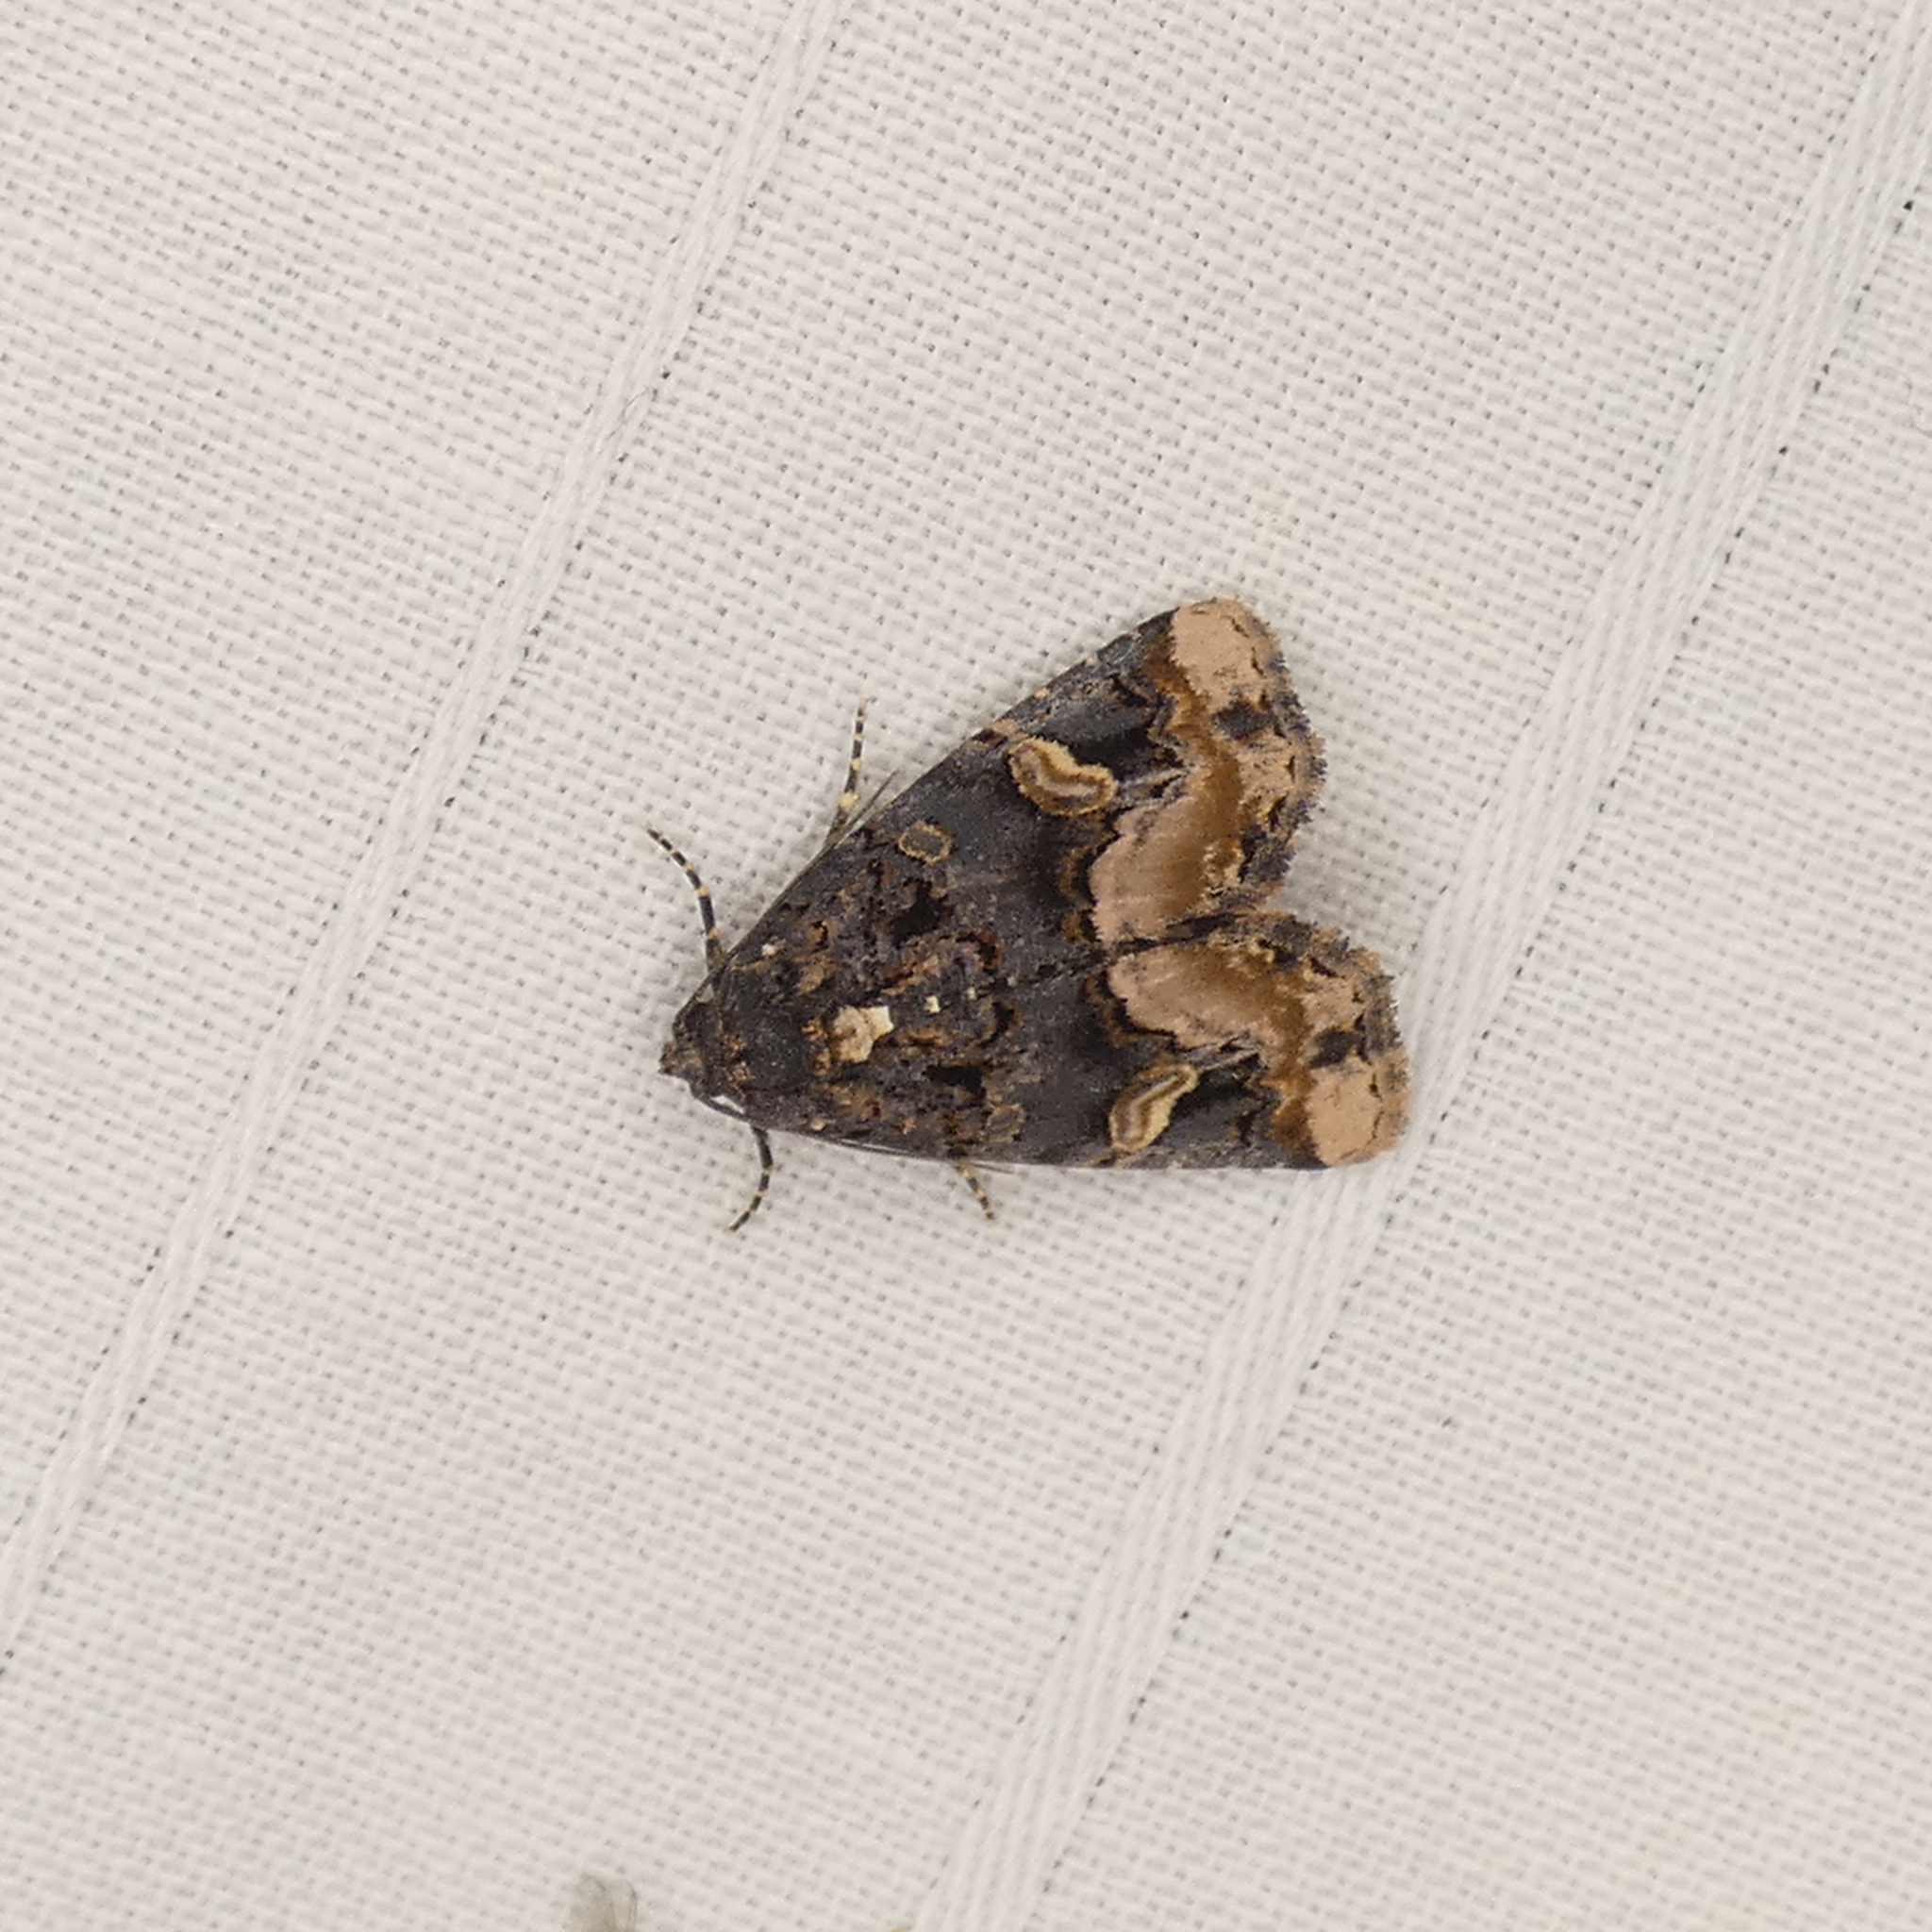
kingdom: Animalia
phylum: Arthropoda
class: Insecta
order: Lepidoptera
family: Noctuidae
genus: Homophoberia
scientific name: Homophoberia apicosa
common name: Black wedge-spot
